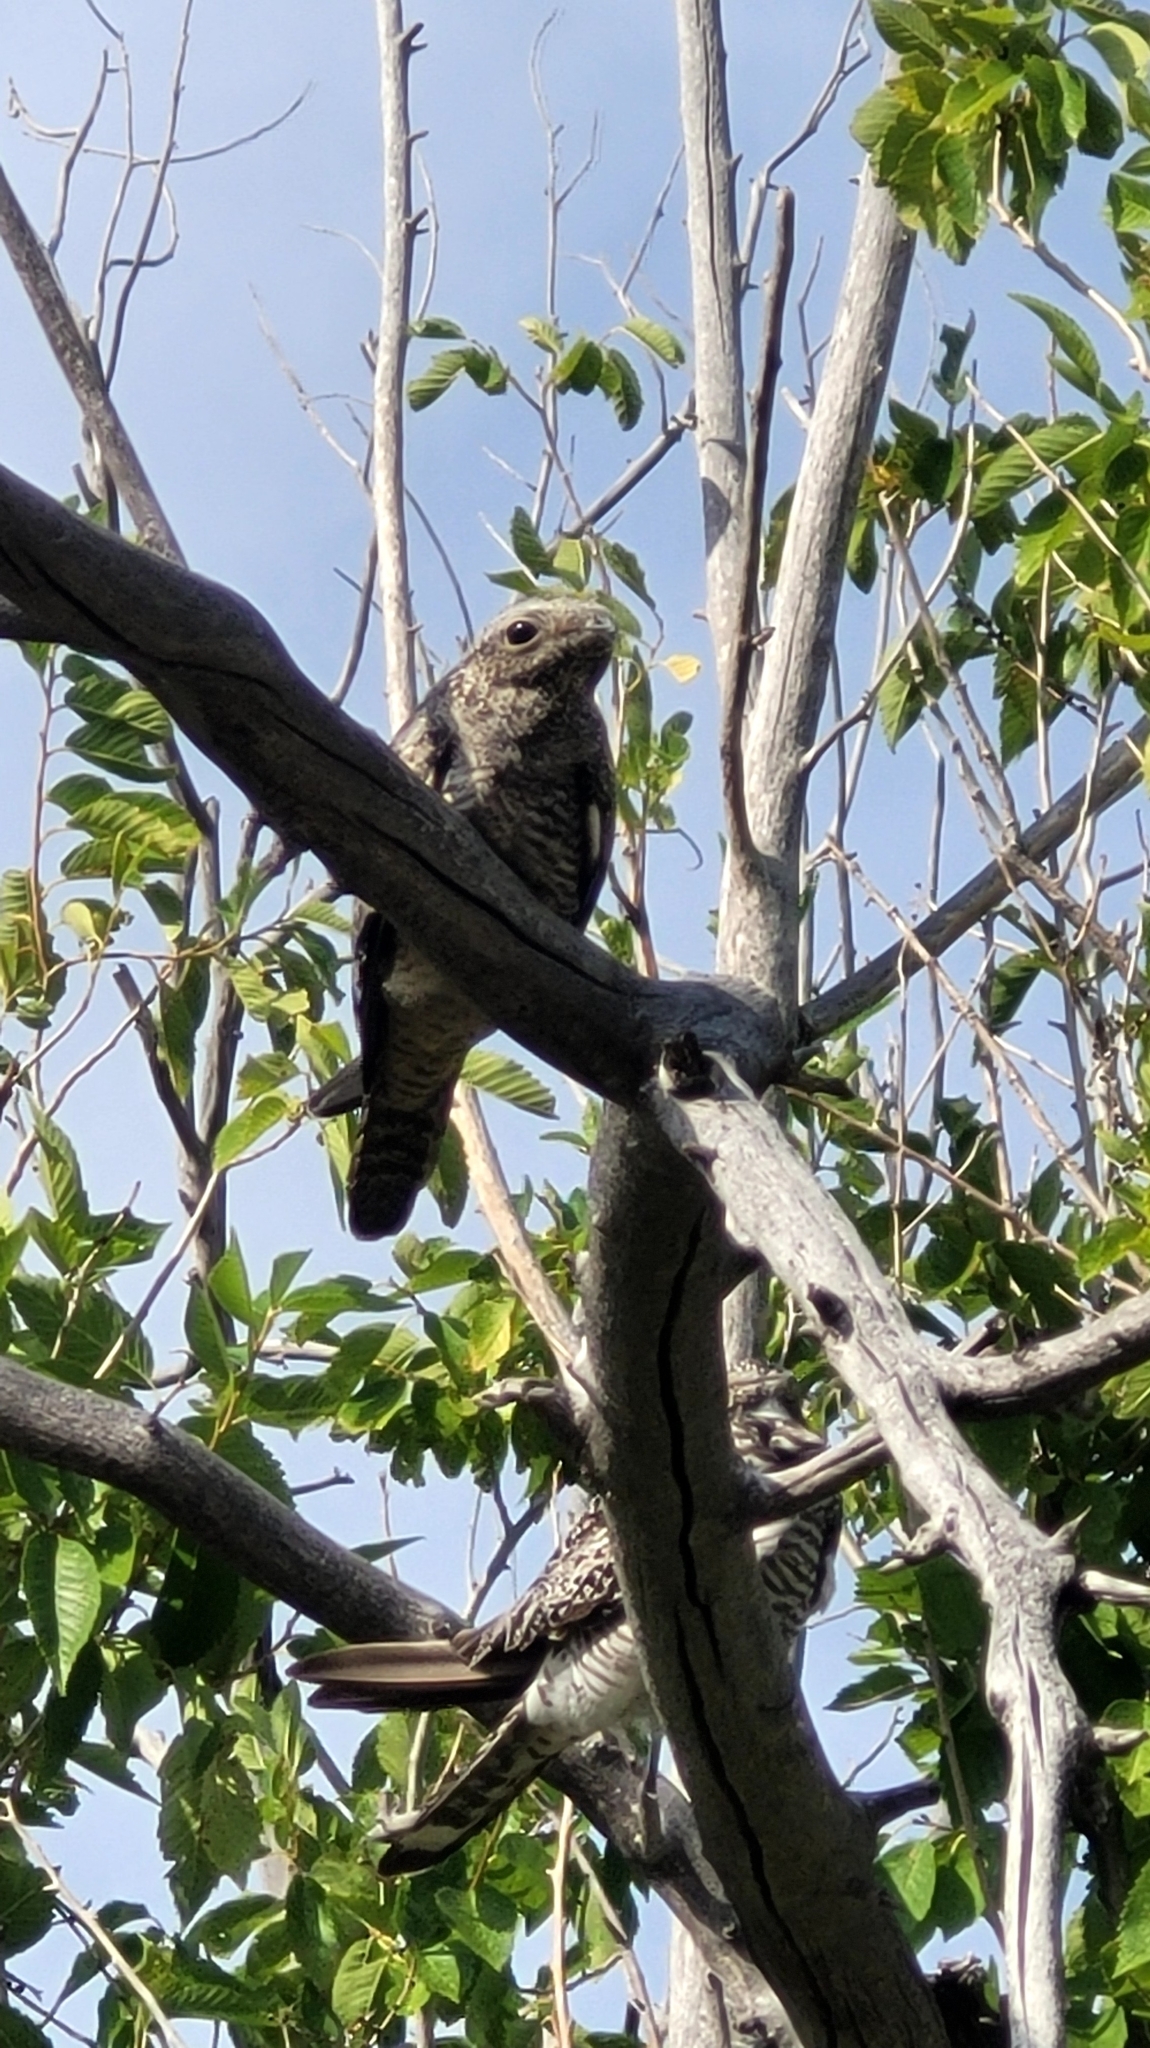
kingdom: Animalia
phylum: Chordata
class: Aves
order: Caprimulgiformes
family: Caprimulgidae
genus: Chordeiles
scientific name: Chordeiles minor
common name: Common nighthawk
